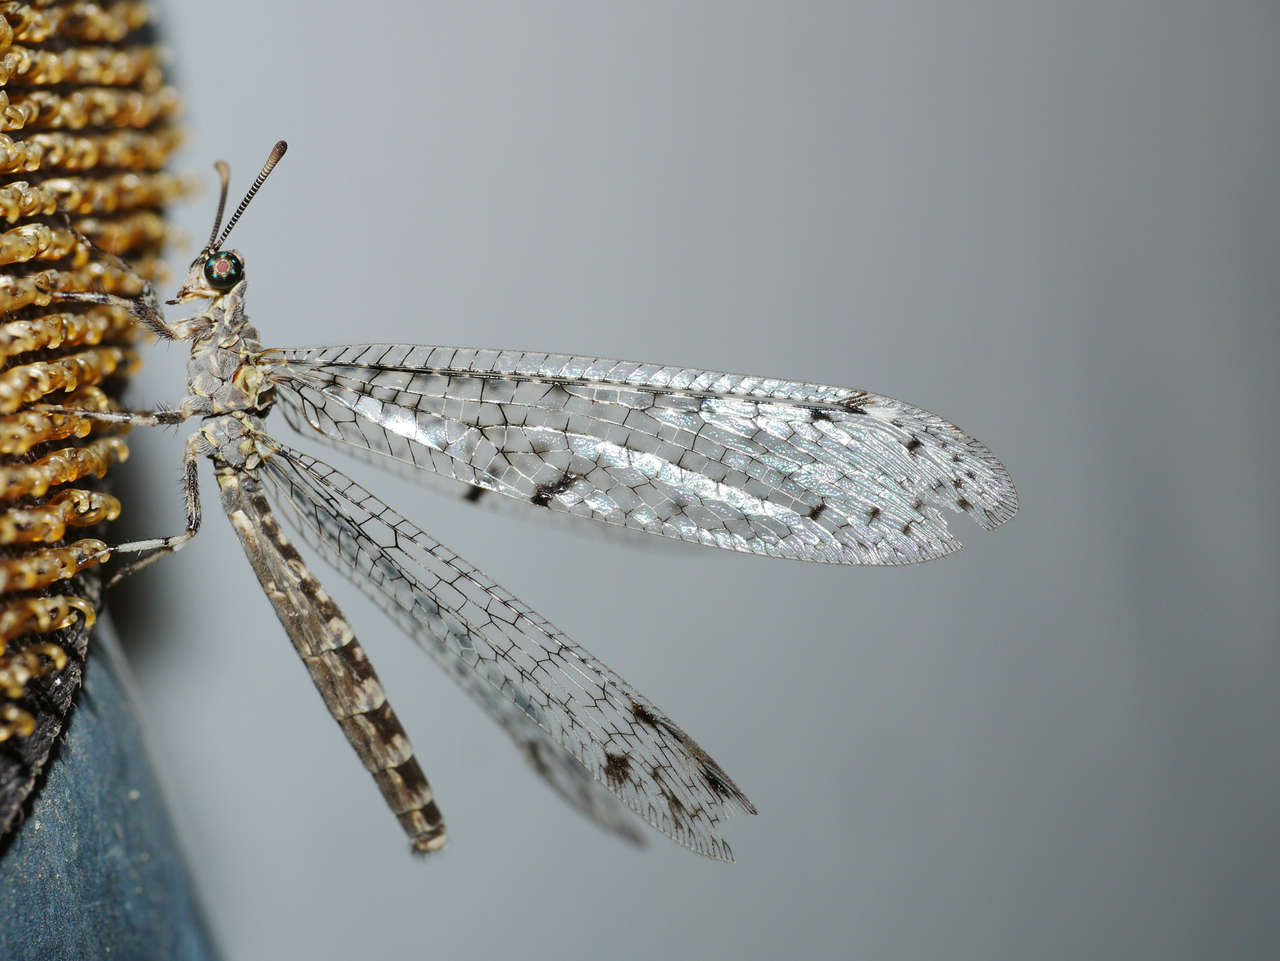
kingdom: Animalia
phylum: Arthropoda
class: Insecta
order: Neuroptera
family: Myrmeleontidae
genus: Bandidus
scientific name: Bandidus breviusculus
